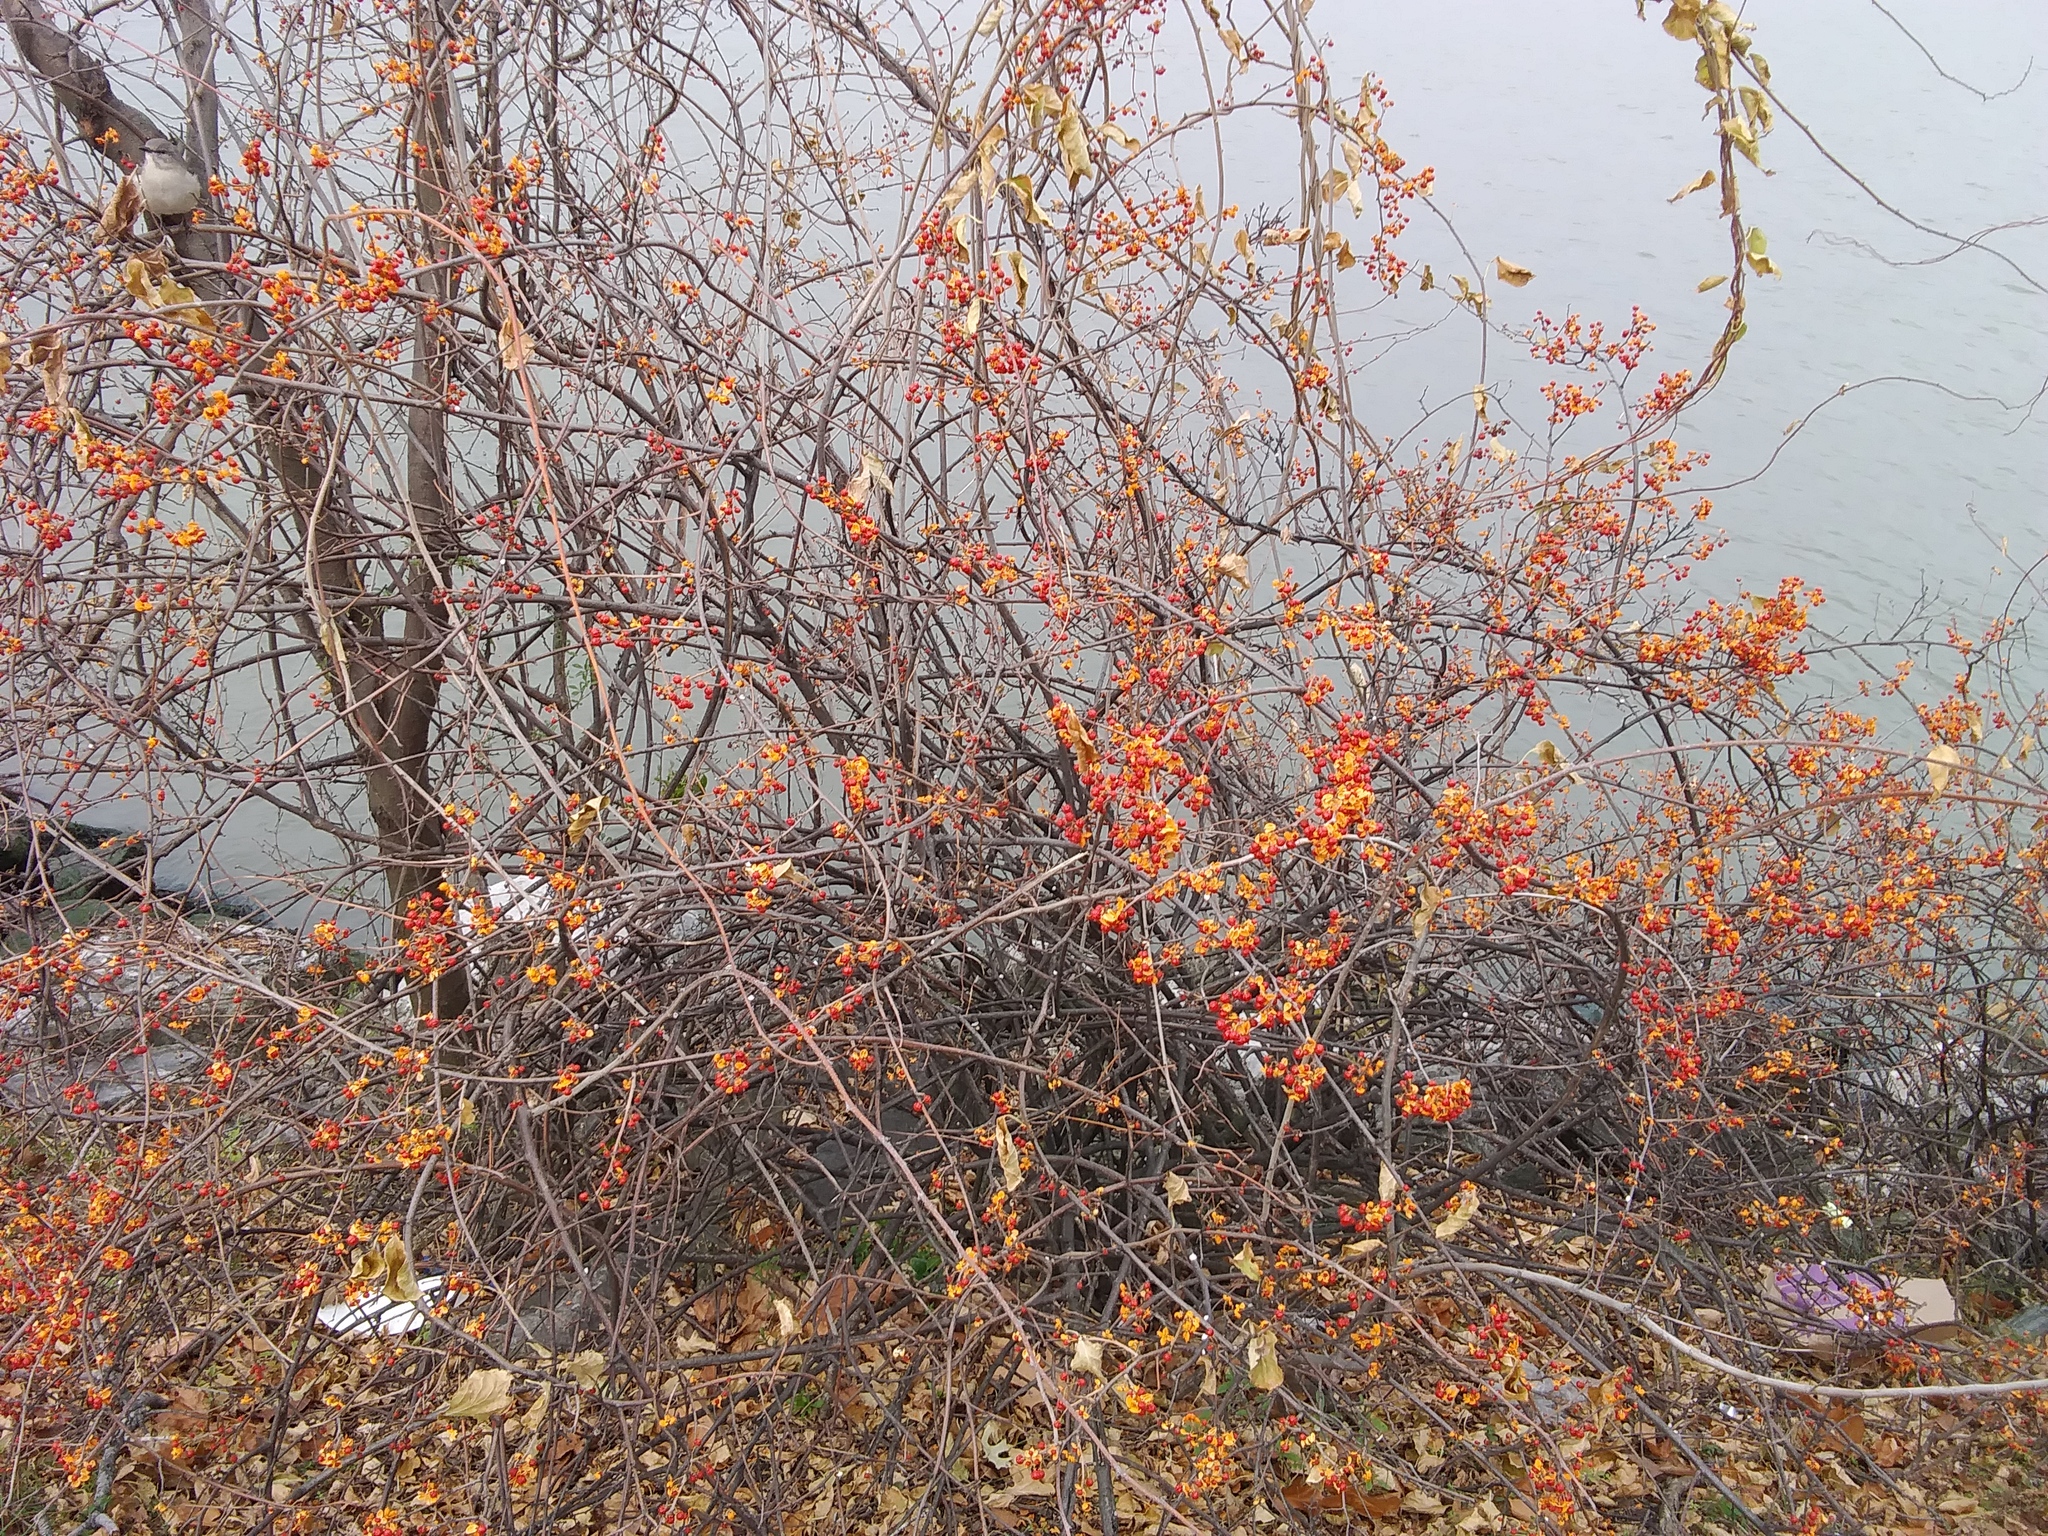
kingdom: Plantae
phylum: Tracheophyta
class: Magnoliopsida
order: Celastrales
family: Celastraceae
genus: Celastrus
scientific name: Celastrus orbiculatus
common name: Oriental bittersweet
